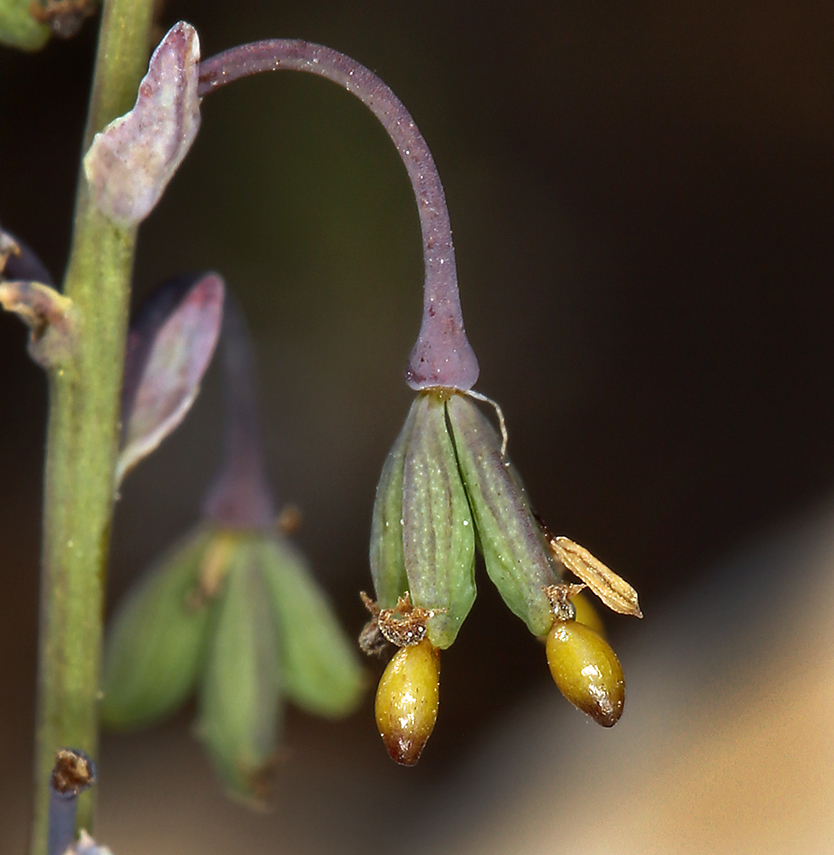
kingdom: Plantae
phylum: Tracheophyta
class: Magnoliopsida
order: Ranunculales
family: Ranunculaceae
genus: Thalictrum
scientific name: Thalictrum alpinum
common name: Alpine meadow-rue
